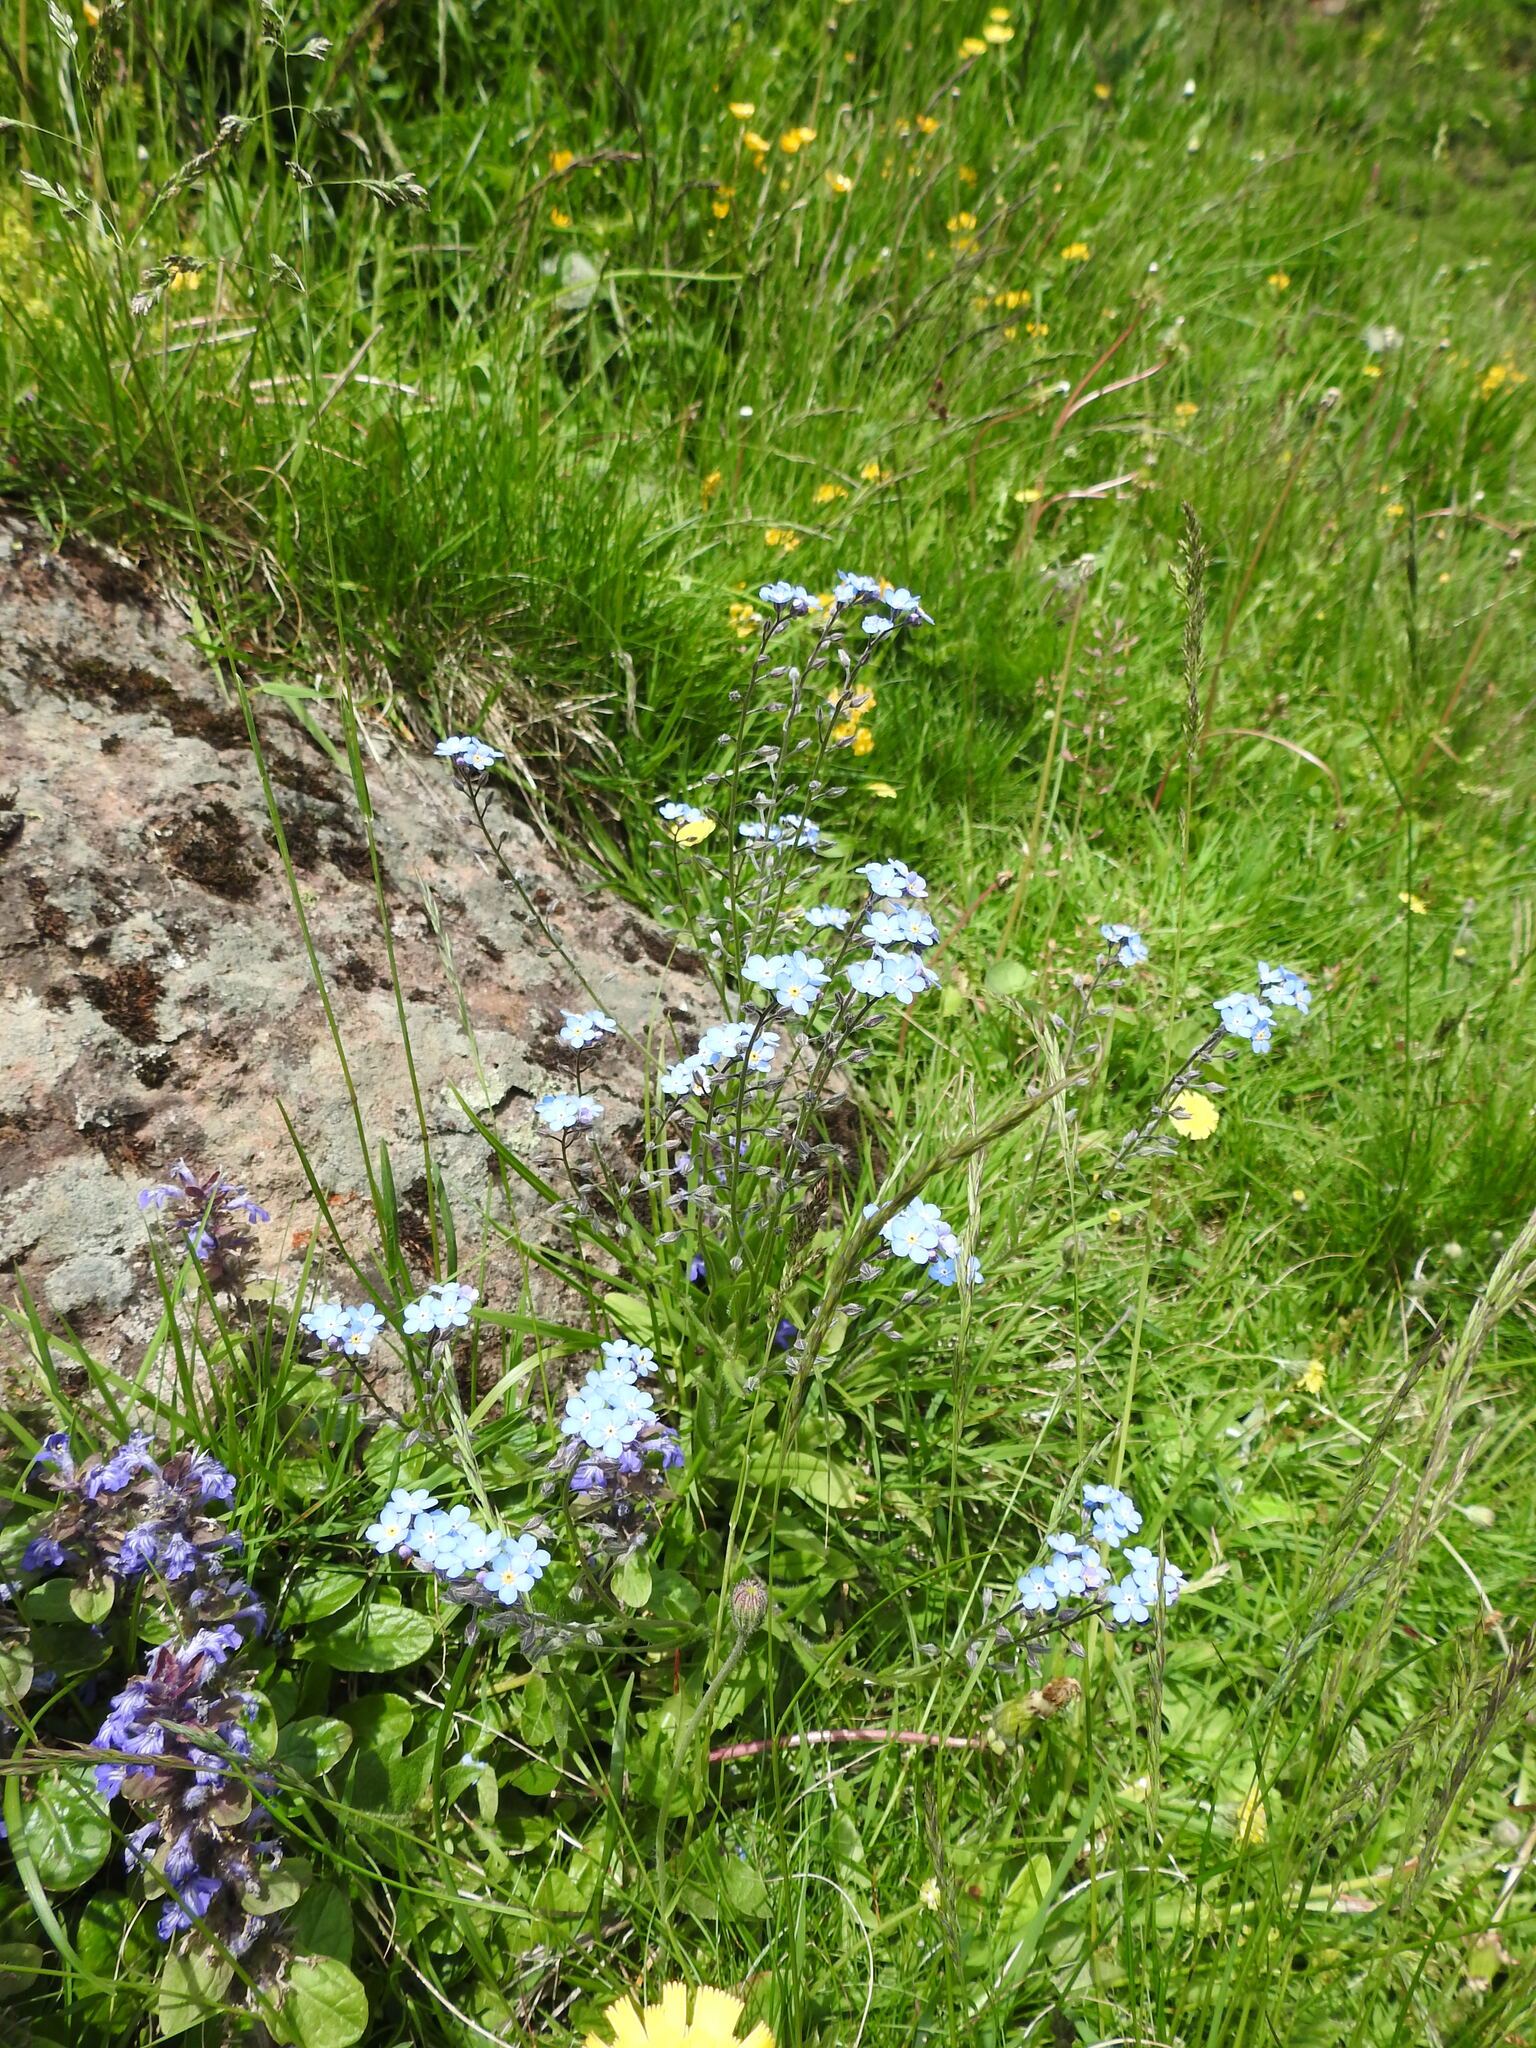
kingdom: Plantae
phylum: Tracheophyta
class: Magnoliopsida
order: Boraginales
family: Boraginaceae
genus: Myosotis
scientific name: Myosotis alpestris
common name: Alpine forget-me-not
